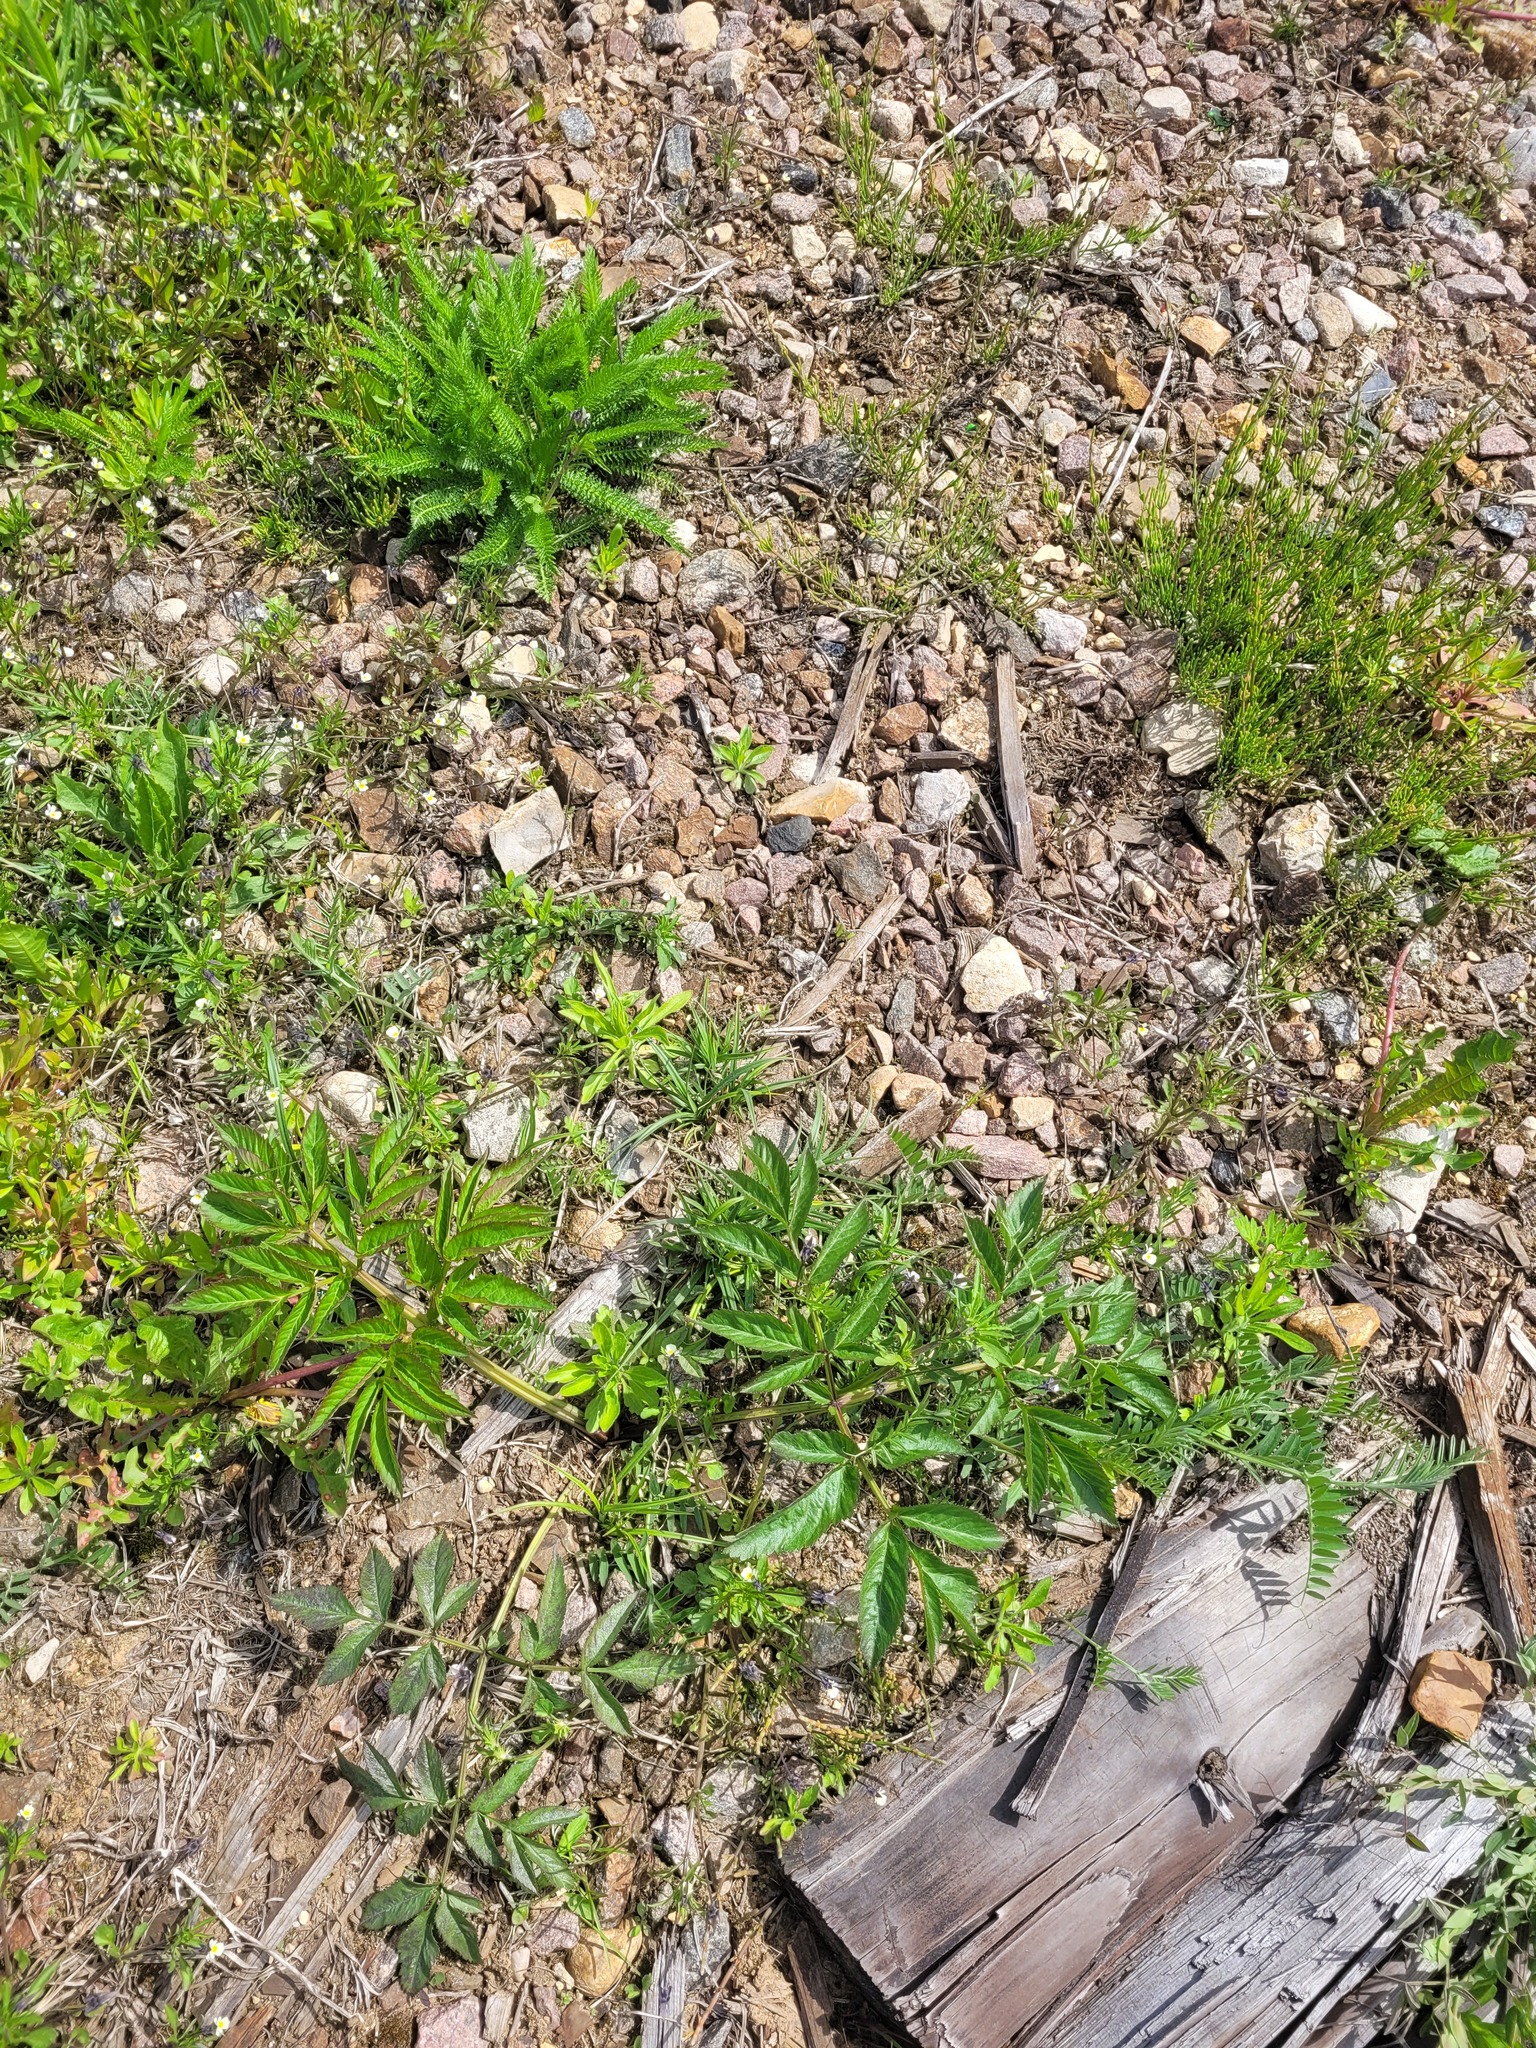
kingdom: Plantae
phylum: Tracheophyta
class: Magnoliopsida
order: Apiales
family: Apiaceae
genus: Angelica
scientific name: Angelica sylvestris
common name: Wild angelica
